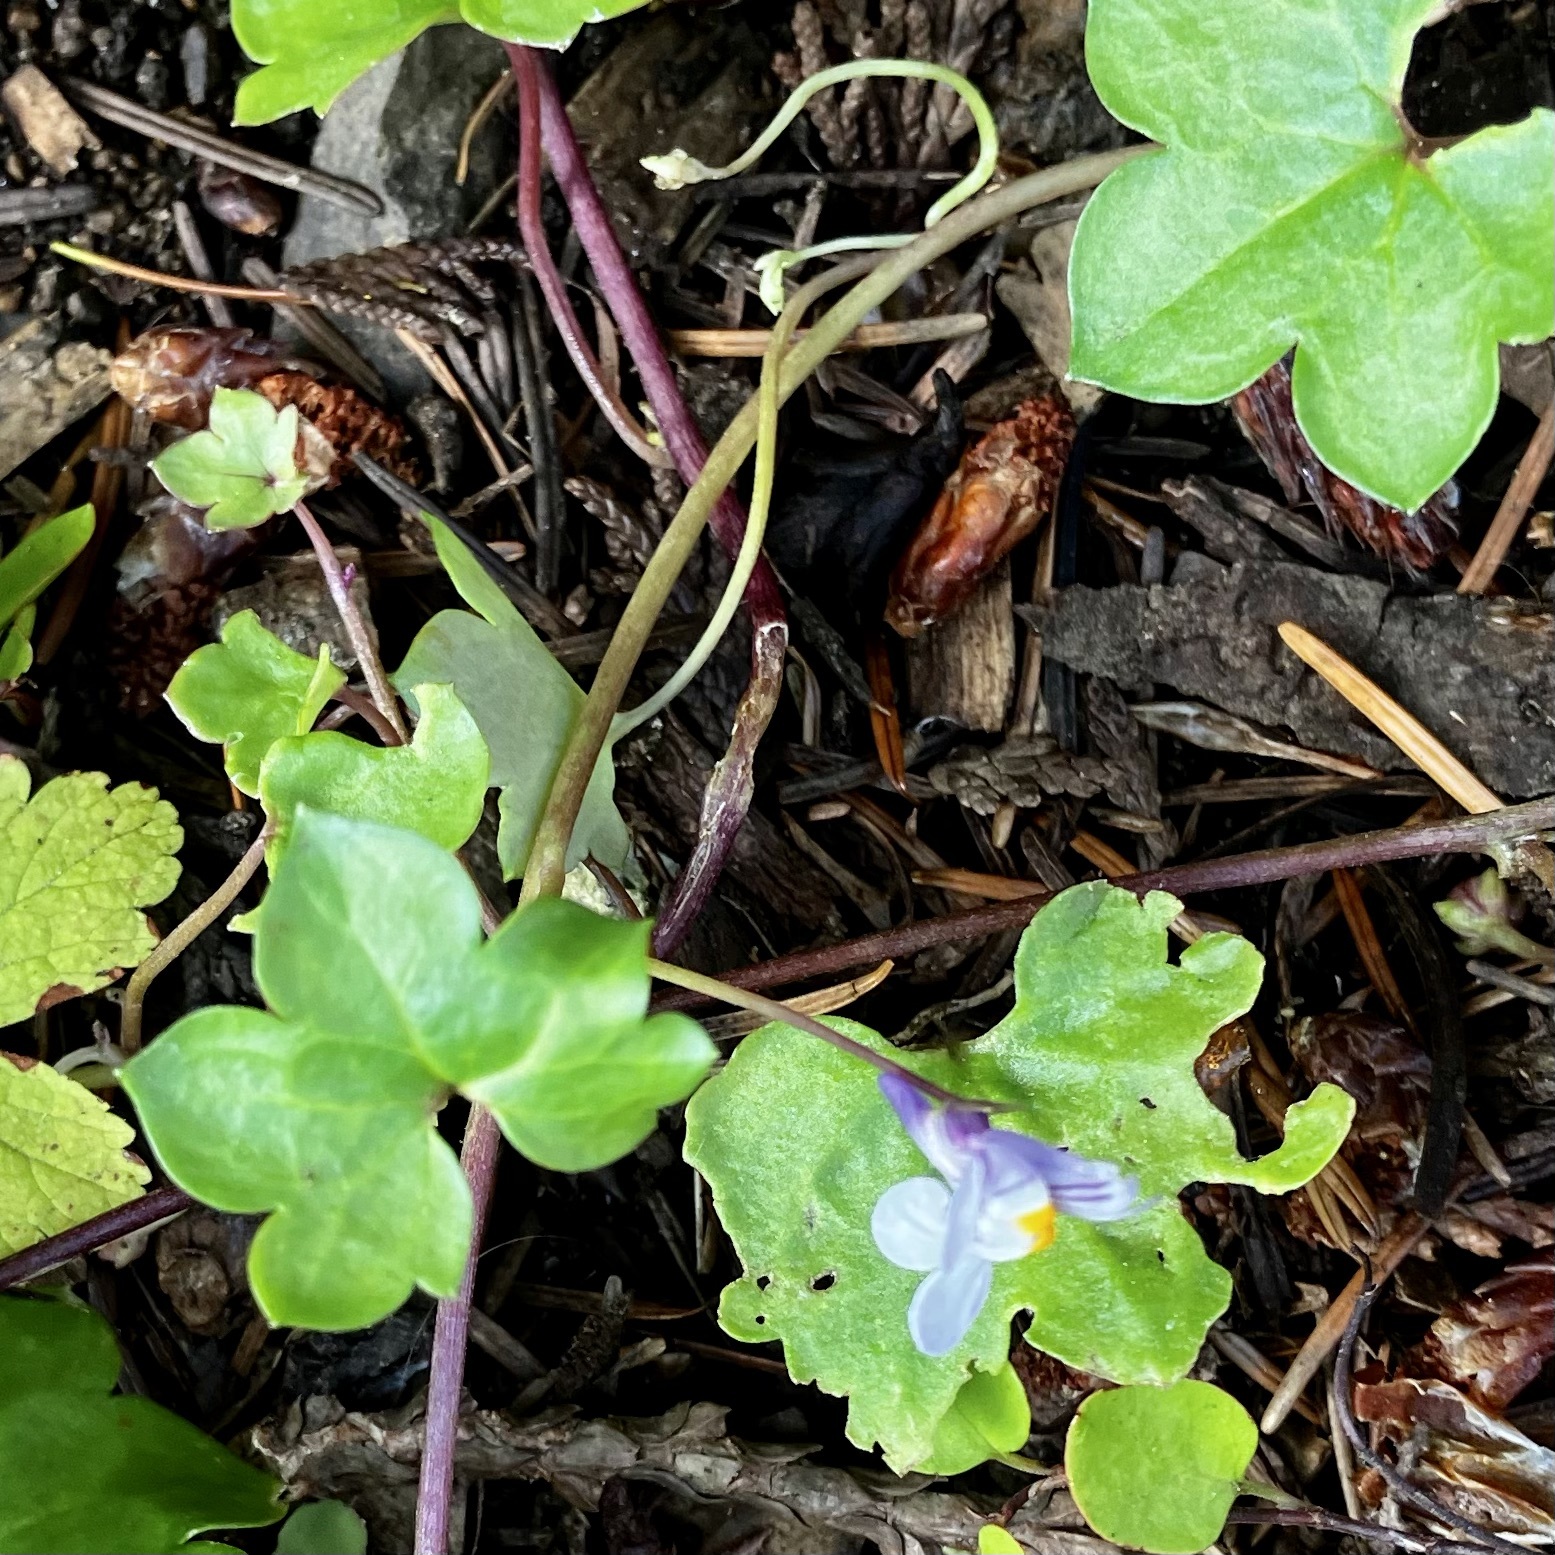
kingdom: Plantae
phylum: Tracheophyta
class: Magnoliopsida
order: Lamiales
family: Plantaginaceae
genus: Cymbalaria
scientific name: Cymbalaria muralis
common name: Ivy-leaved toadflax
